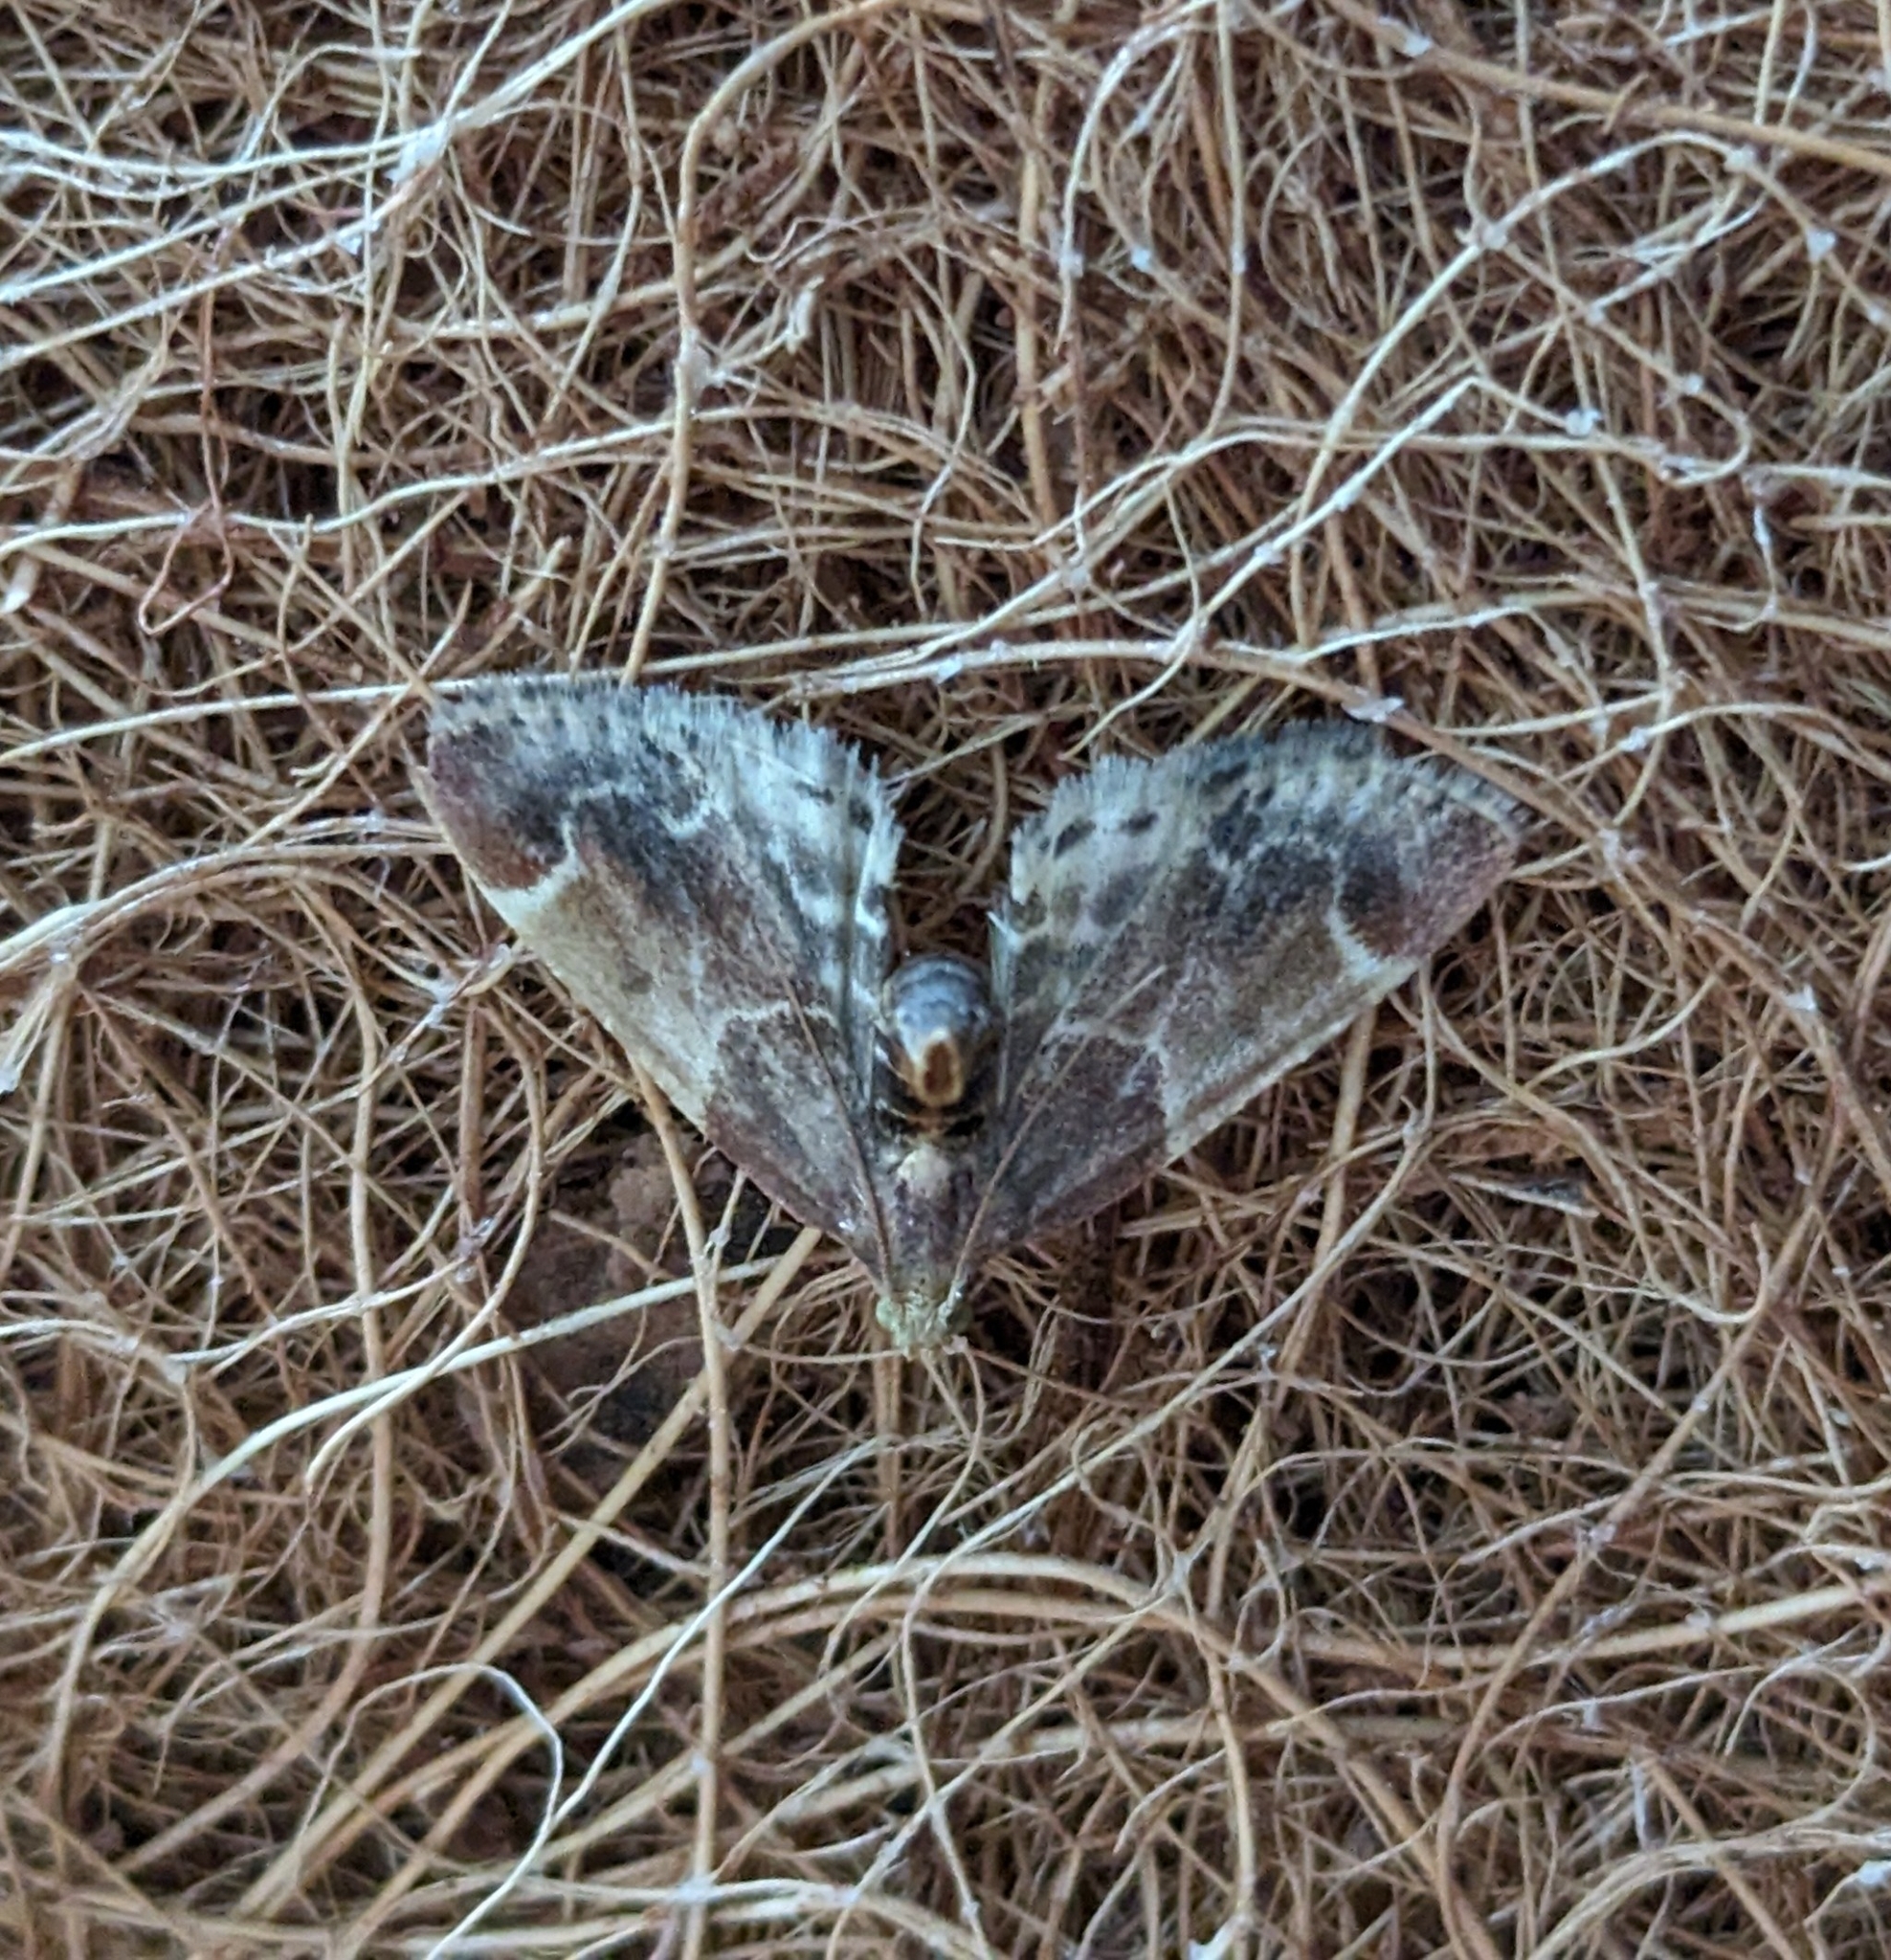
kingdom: Animalia
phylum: Arthropoda
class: Insecta
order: Lepidoptera
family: Pyralidae
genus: Pyralis
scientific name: Pyralis farinalis
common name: Meal moth
